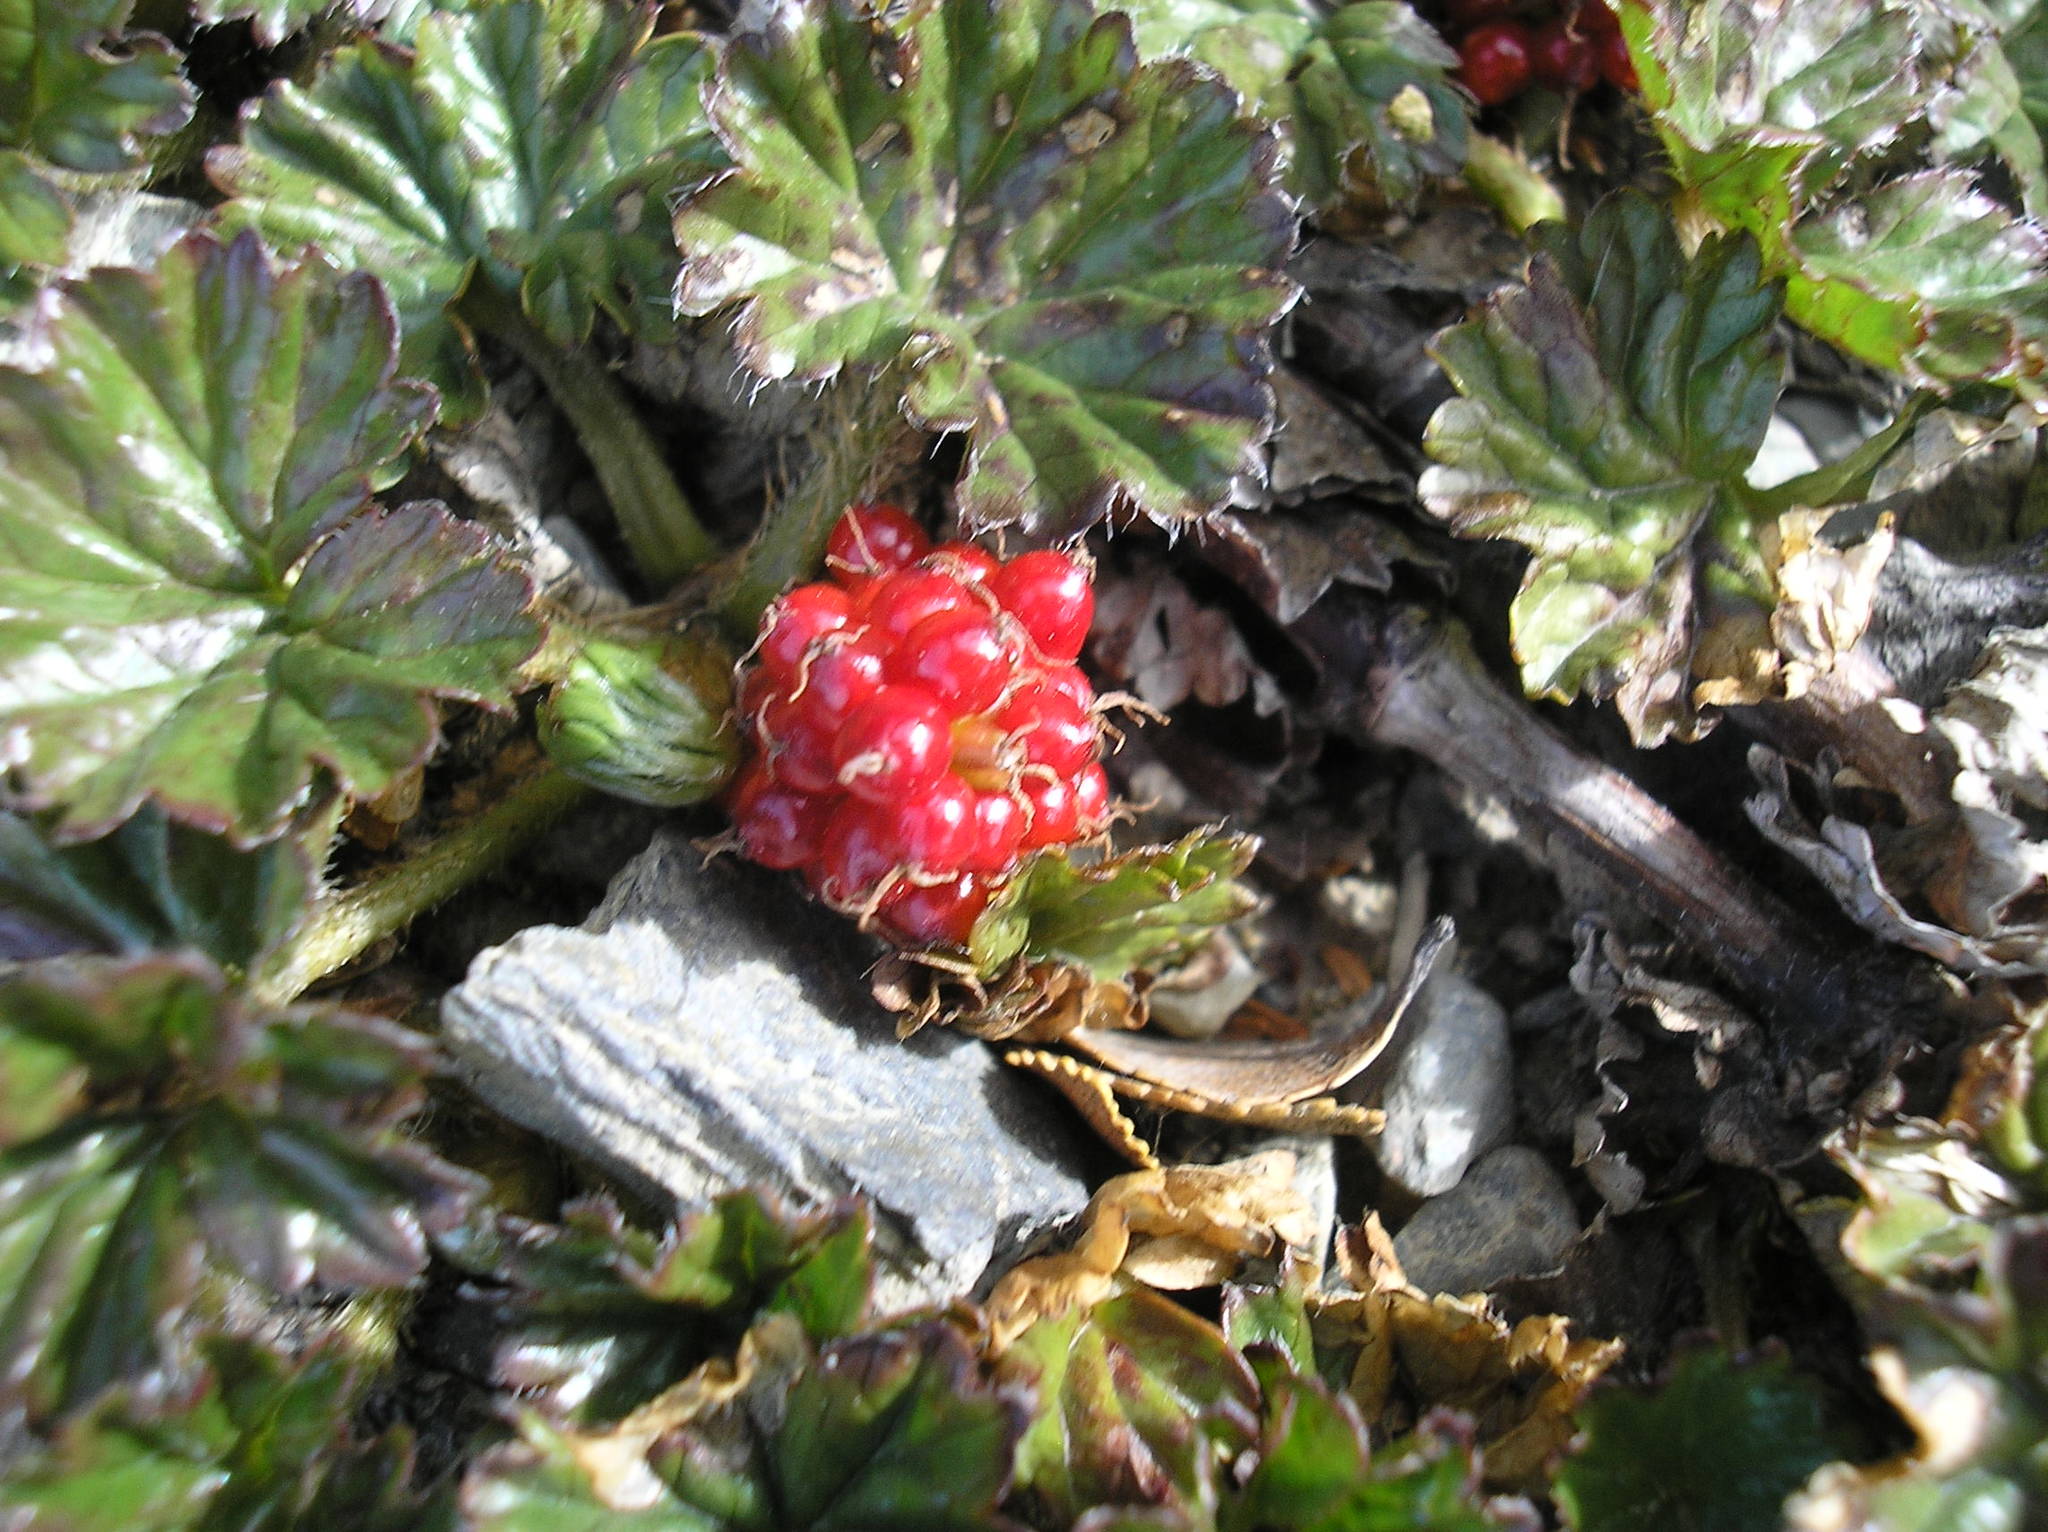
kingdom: Plantae
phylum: Tracheophyta
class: Magnoliopsida
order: Gunnerales
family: Gunneraceae
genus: Gunnera
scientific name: Gunnera magellanica
